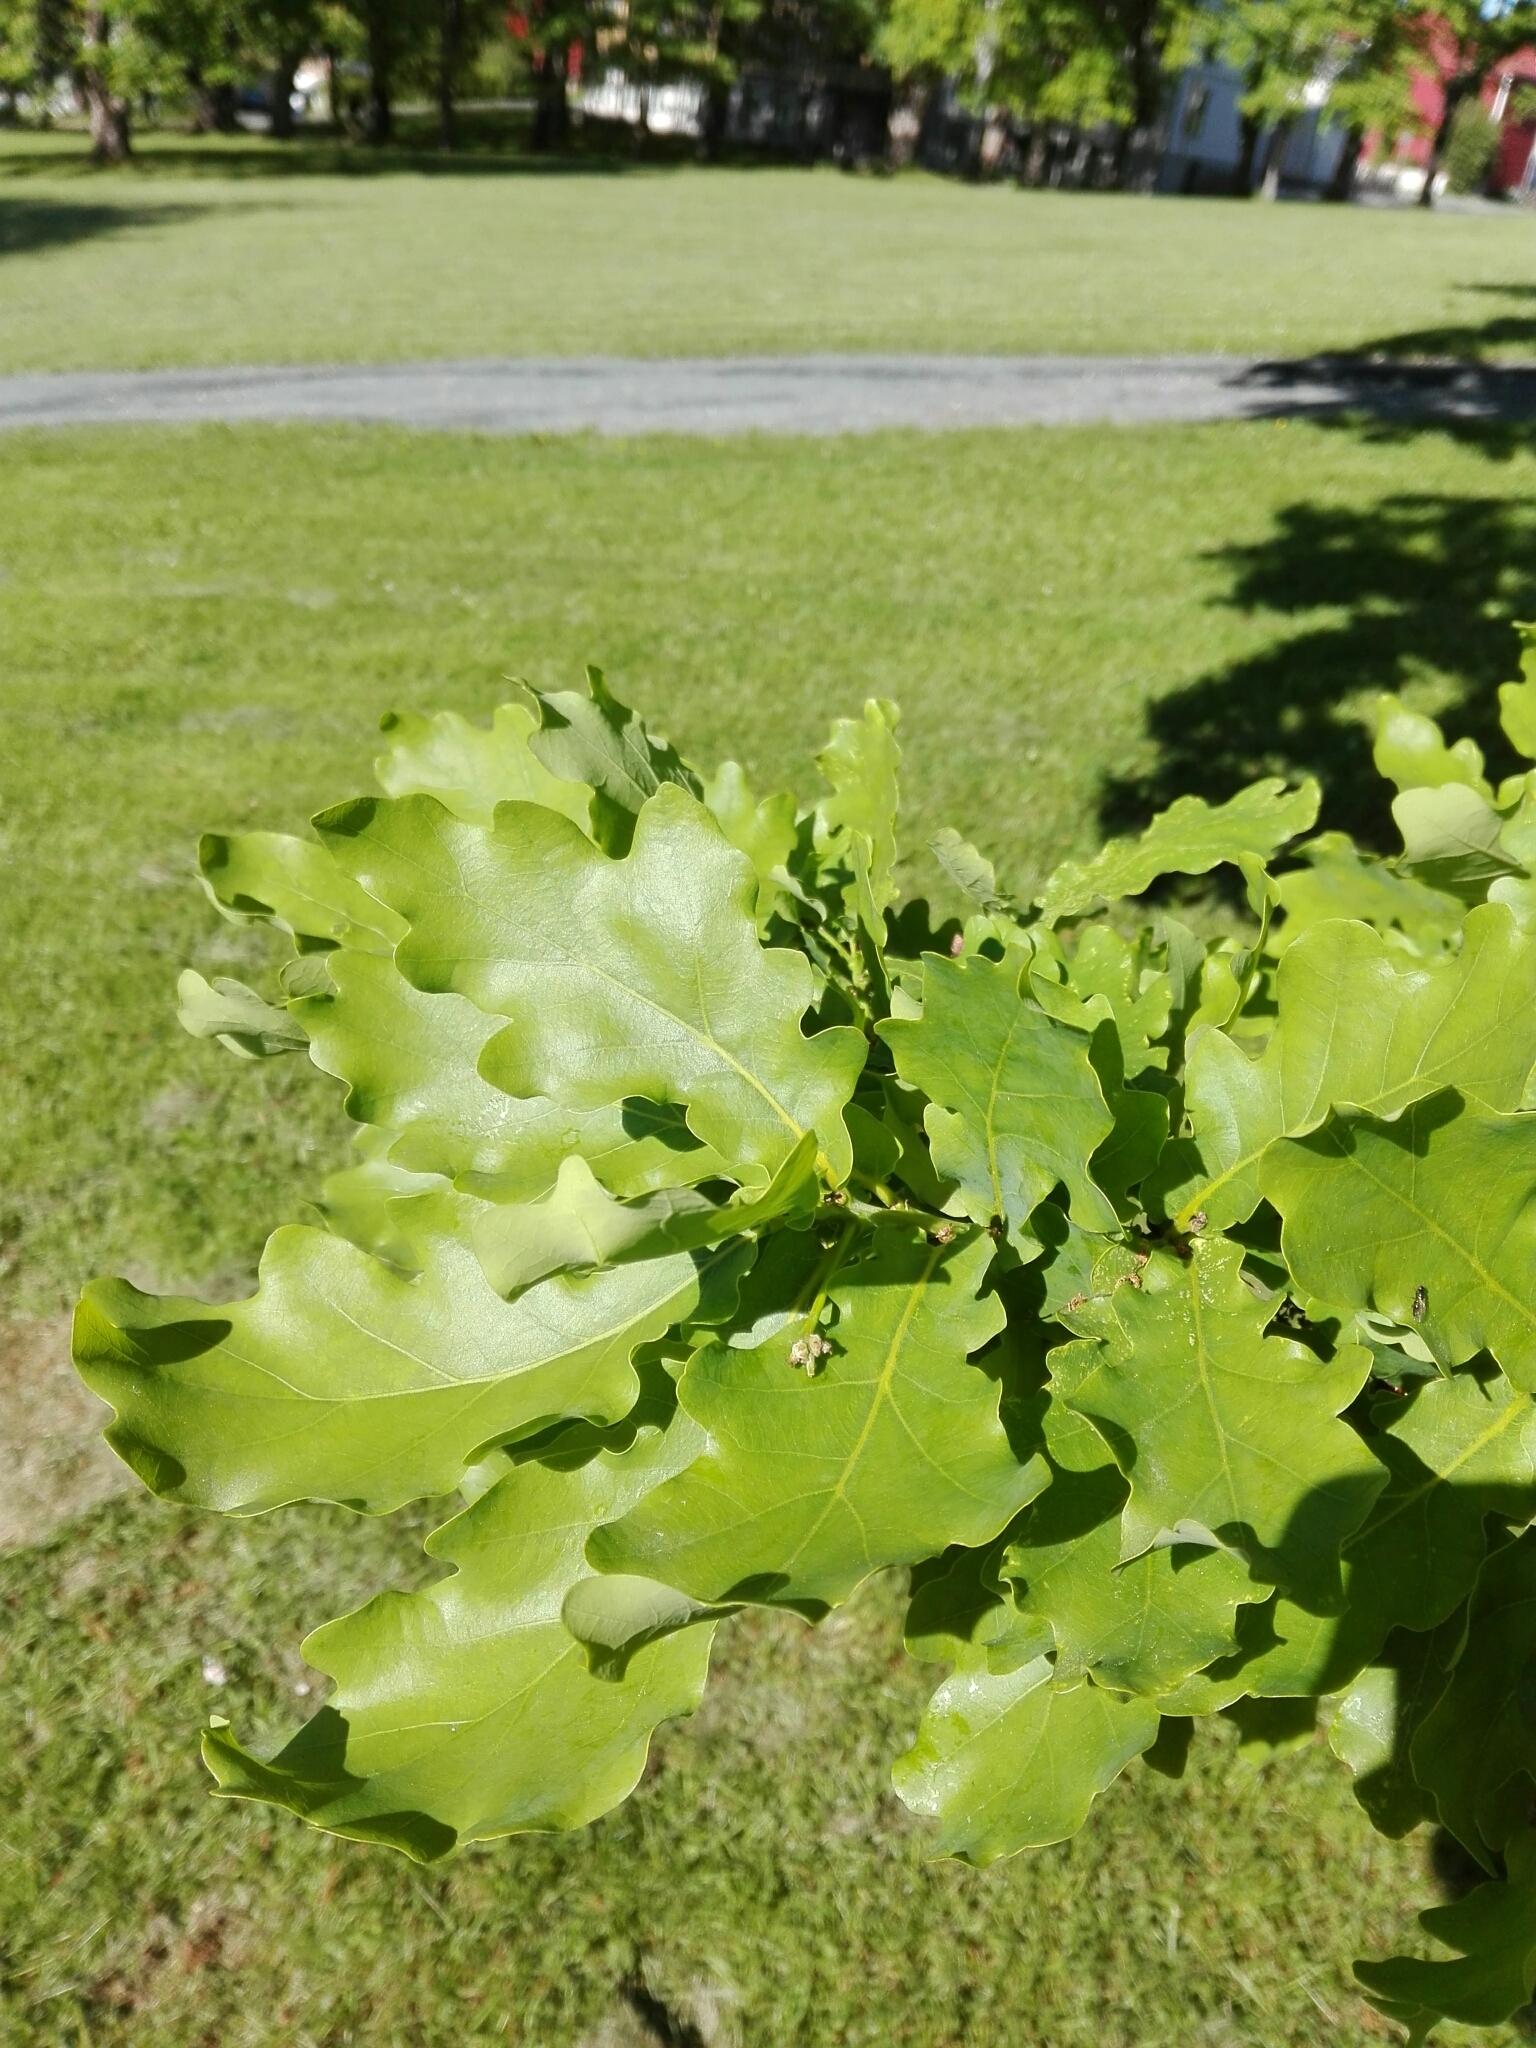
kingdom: Plantae
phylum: Tracheophyta
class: Magnoliopsida
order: Fagales
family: Fagaceae
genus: Quercus
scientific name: Quercus robur
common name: Pedunculate oak
